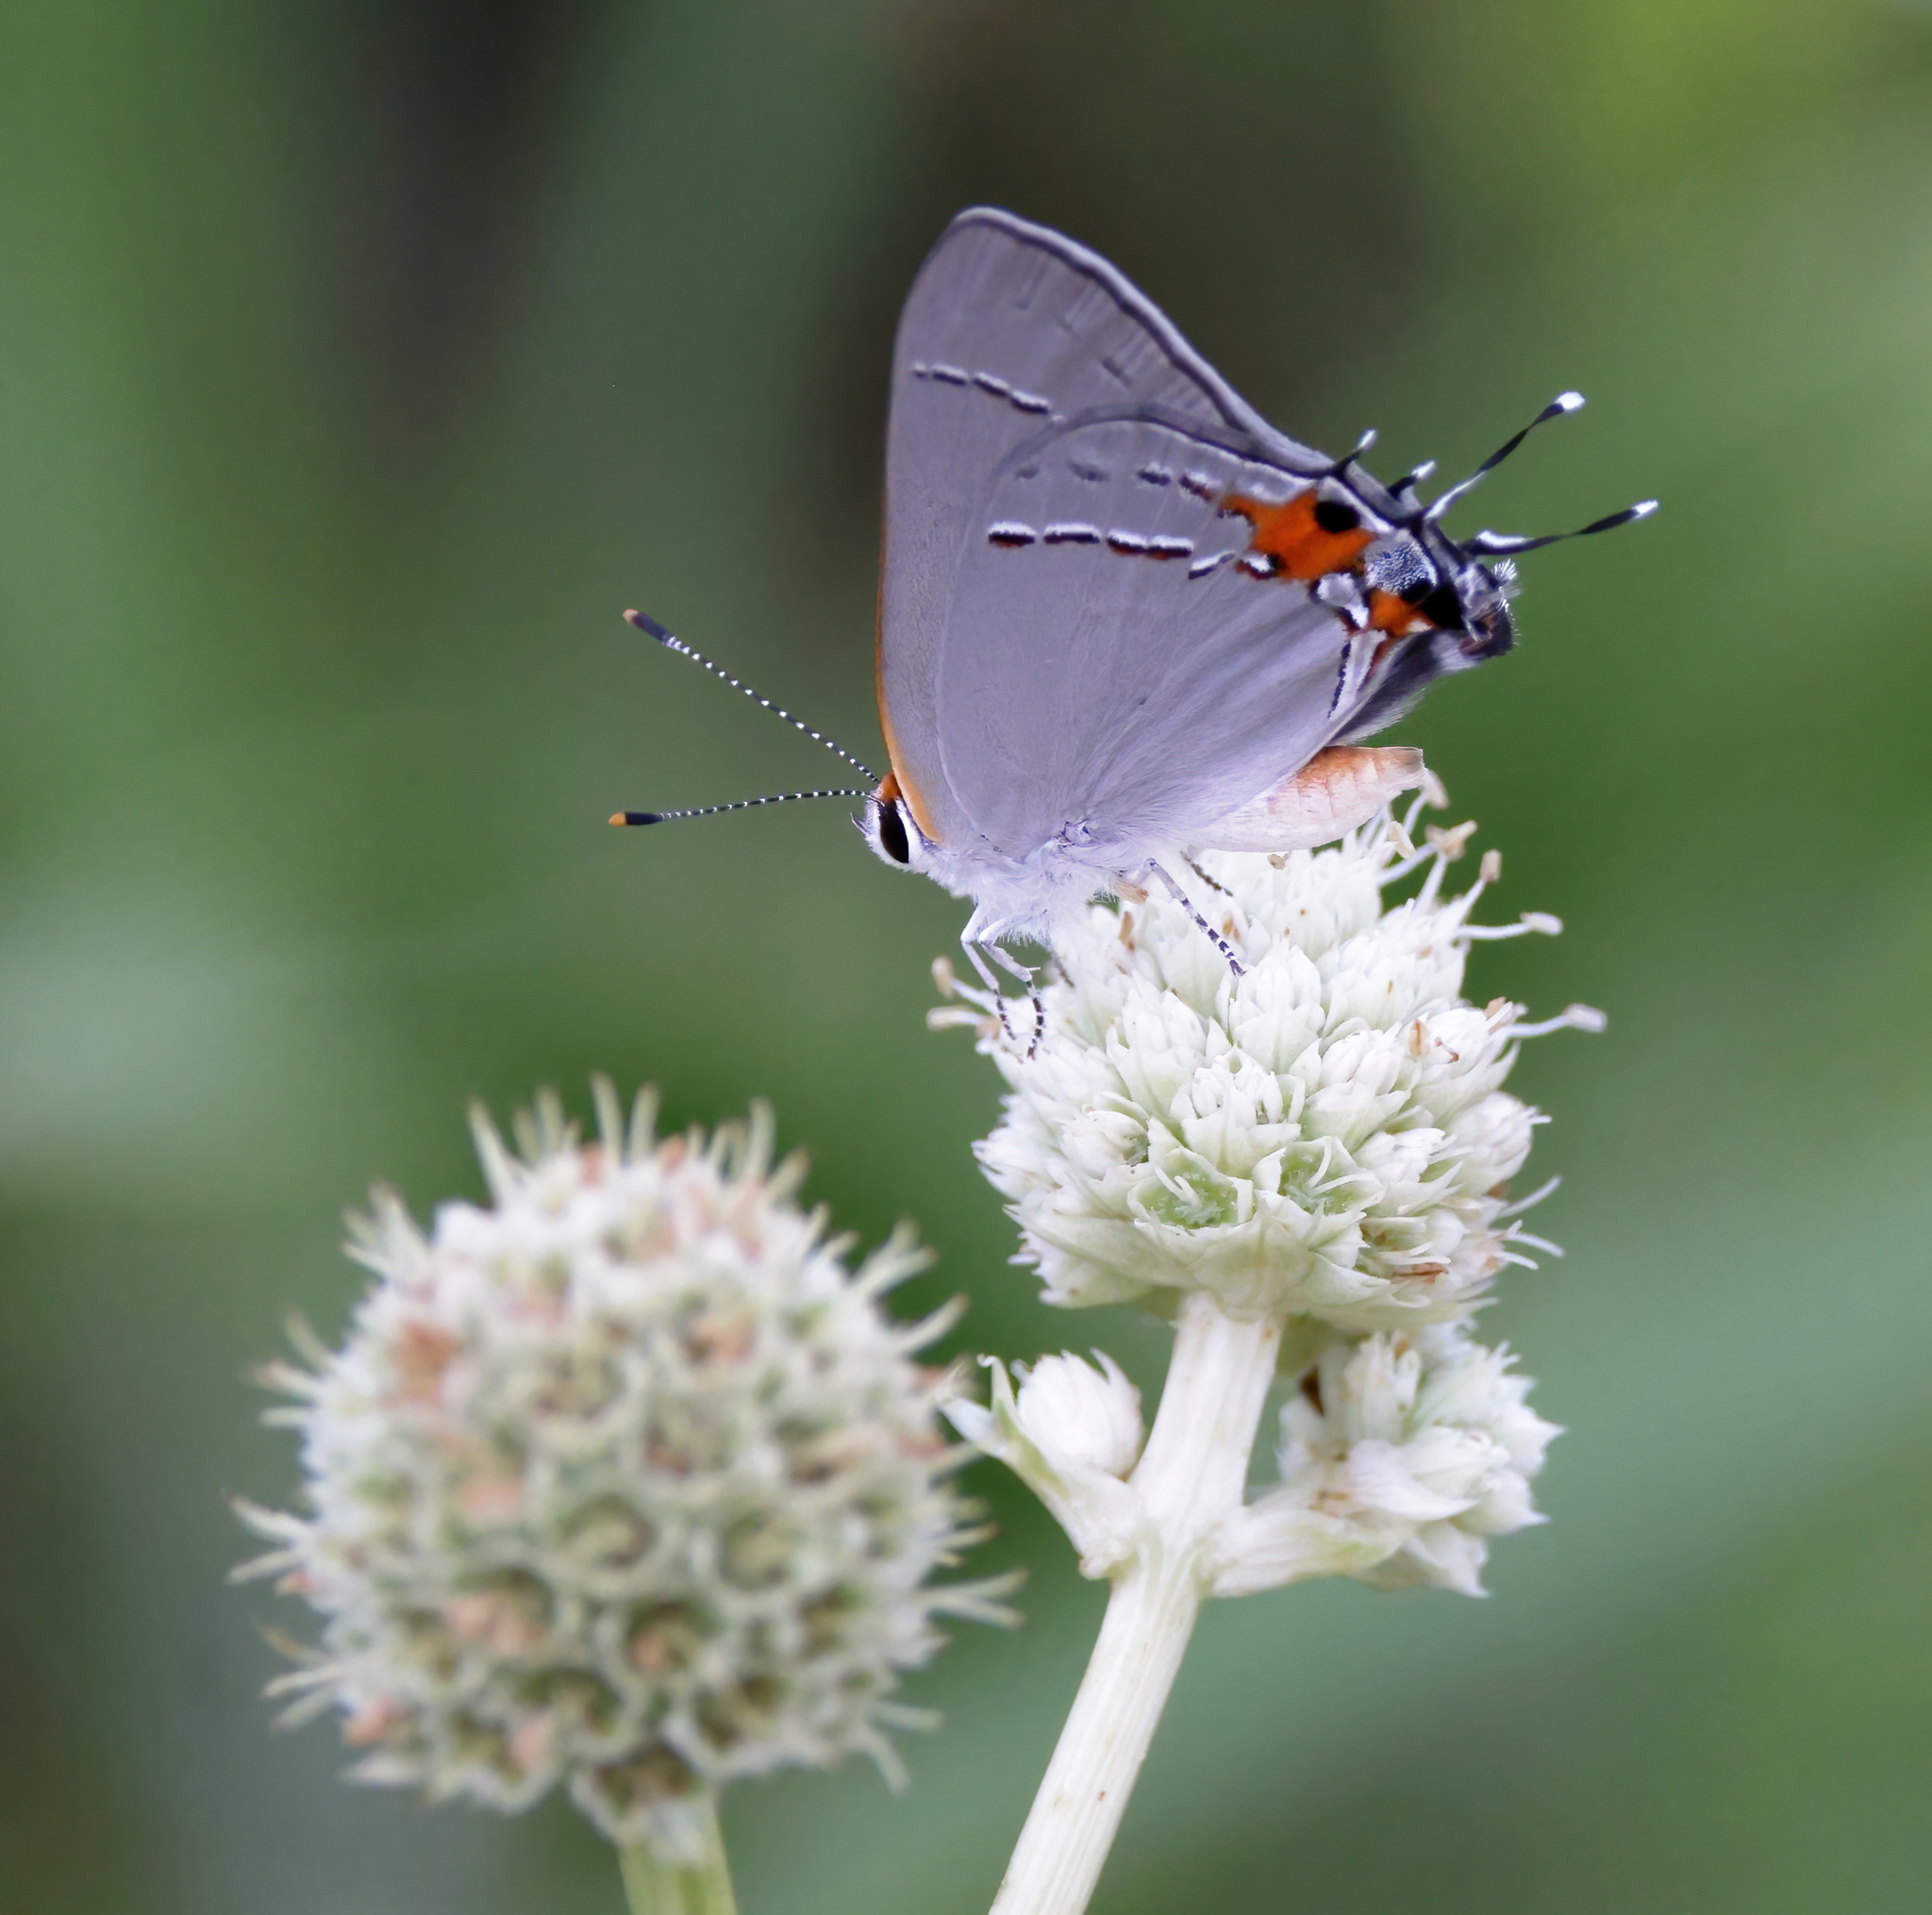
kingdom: Animalia
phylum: Arthropoda
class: Insecta
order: Lepidoptera
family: Lycaenidae
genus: Strymon
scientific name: Strymon melinus
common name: Gray hairstreak
